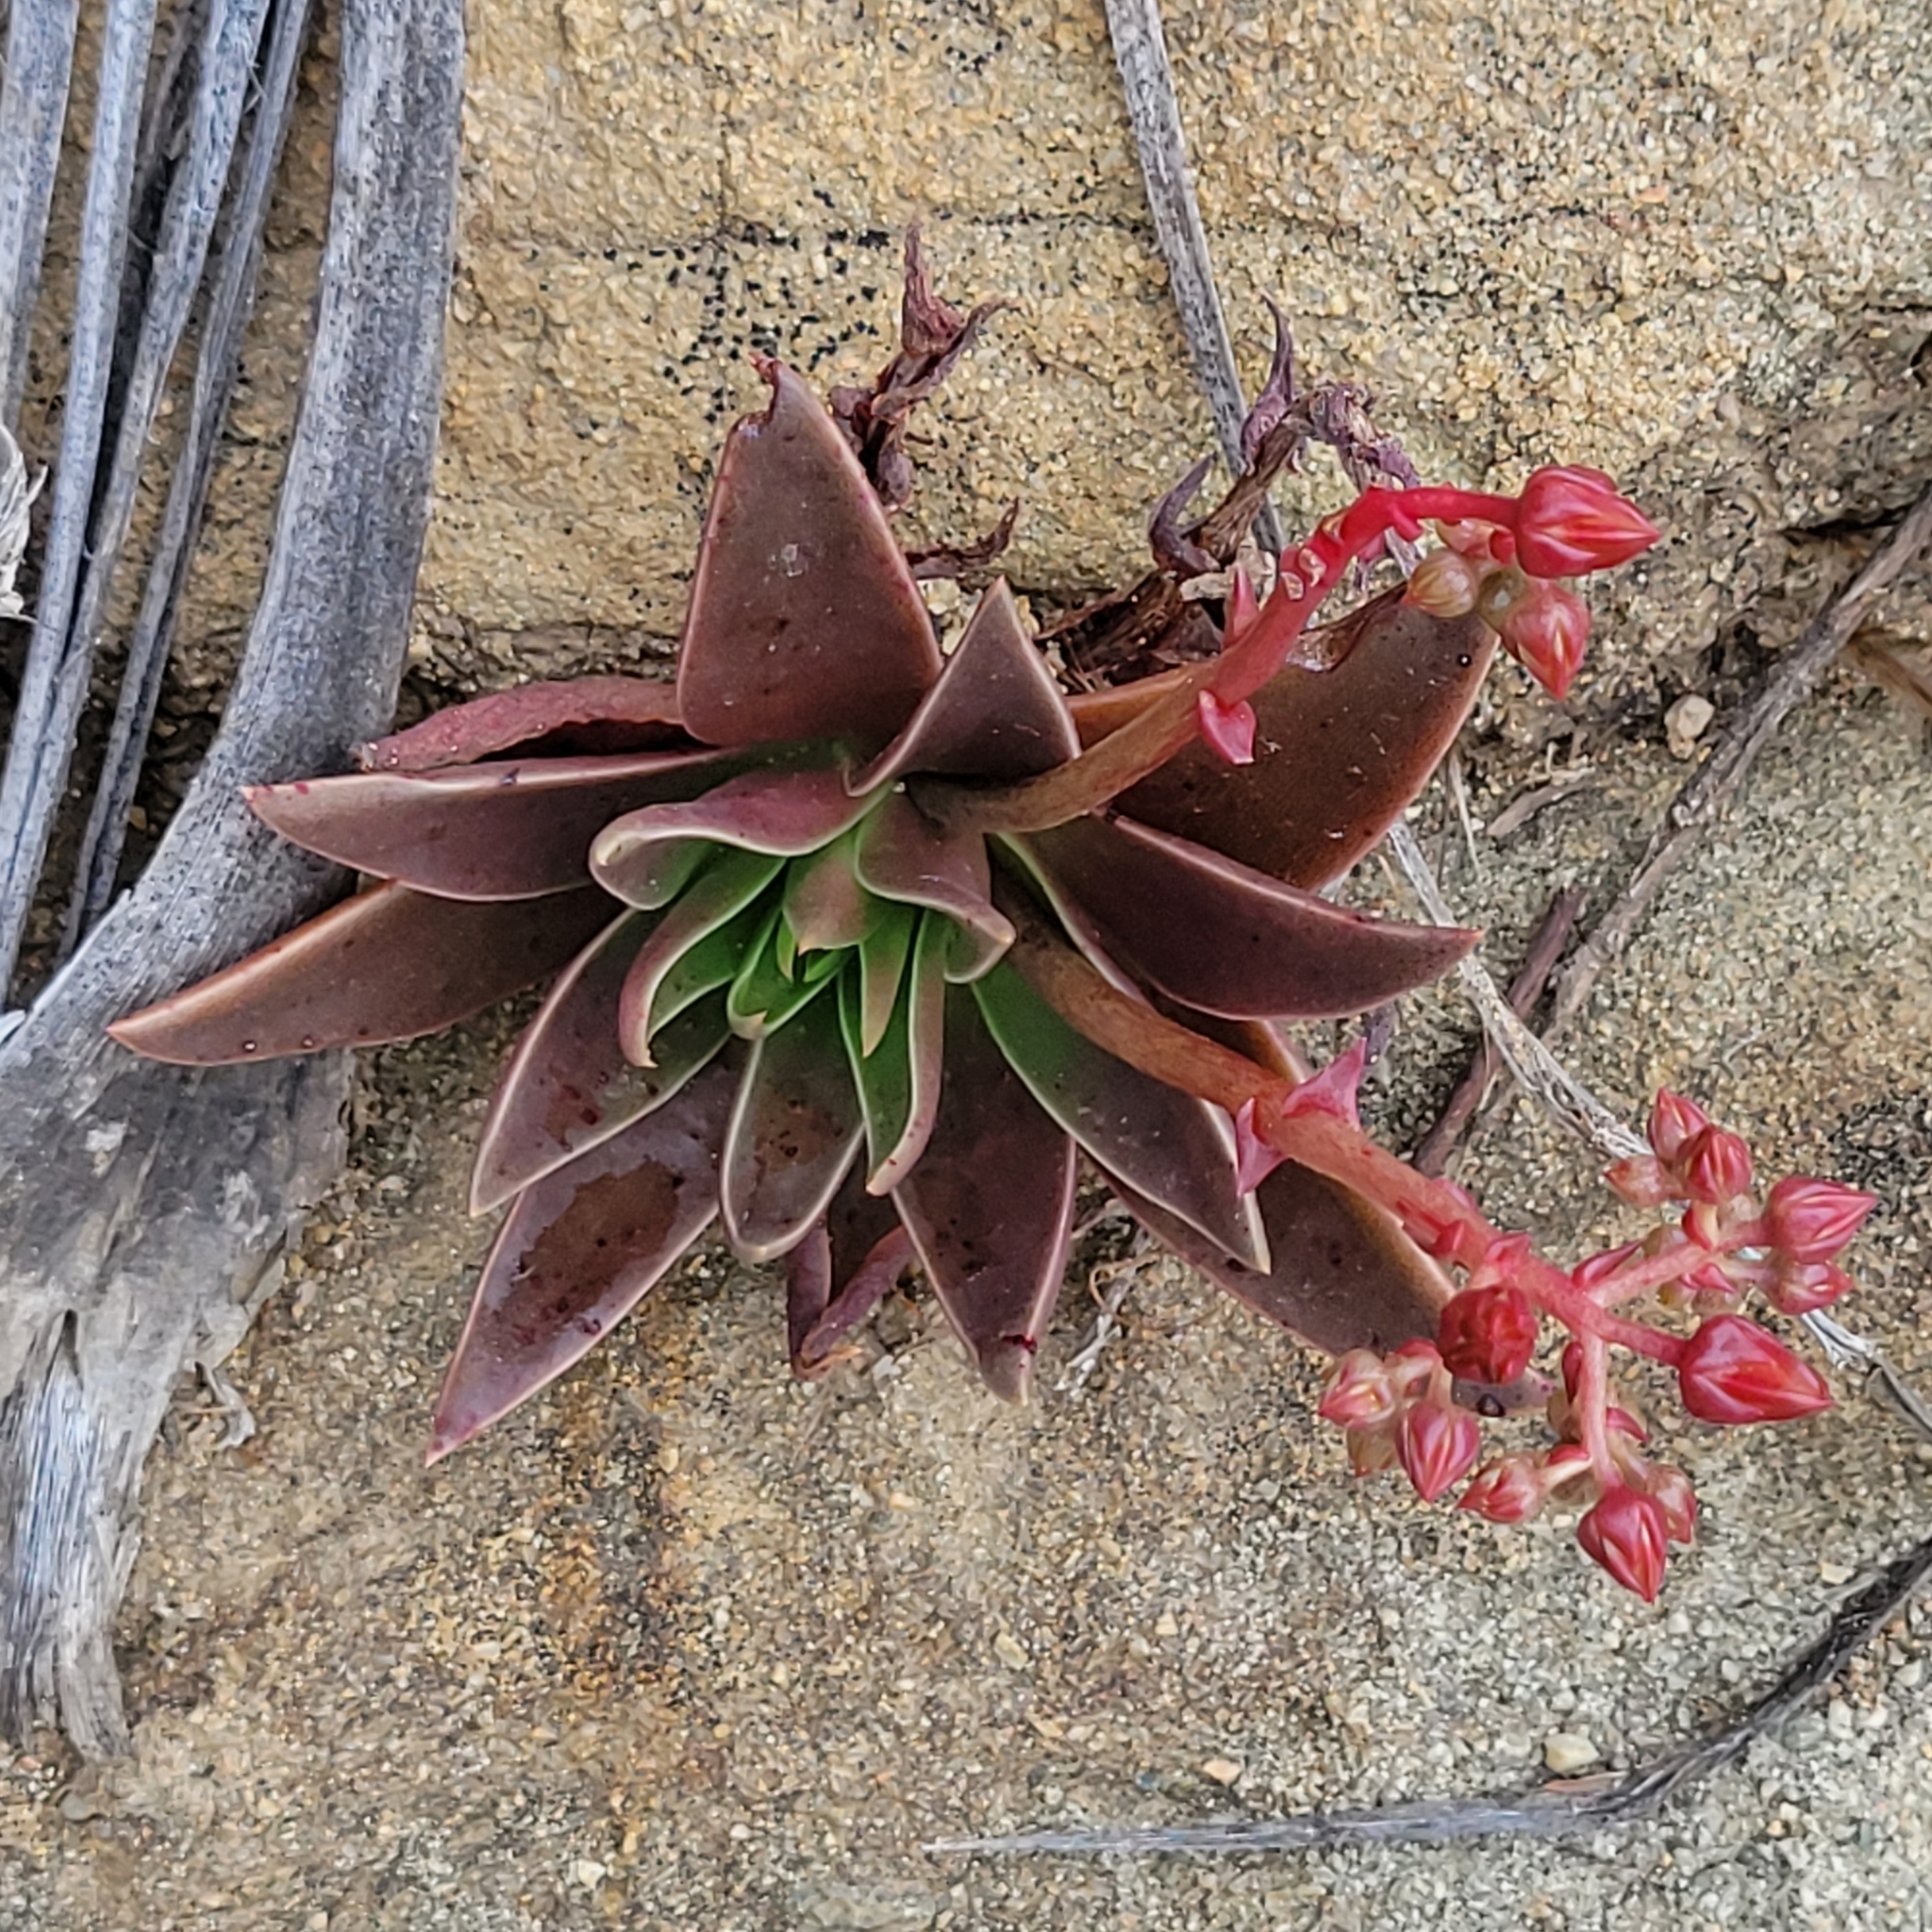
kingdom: Plantae
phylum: Tracheophyta
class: Magnoliopsida
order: Saxifragales
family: Crassulaceae
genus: Dudleya
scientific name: Dudleya lanceolata
